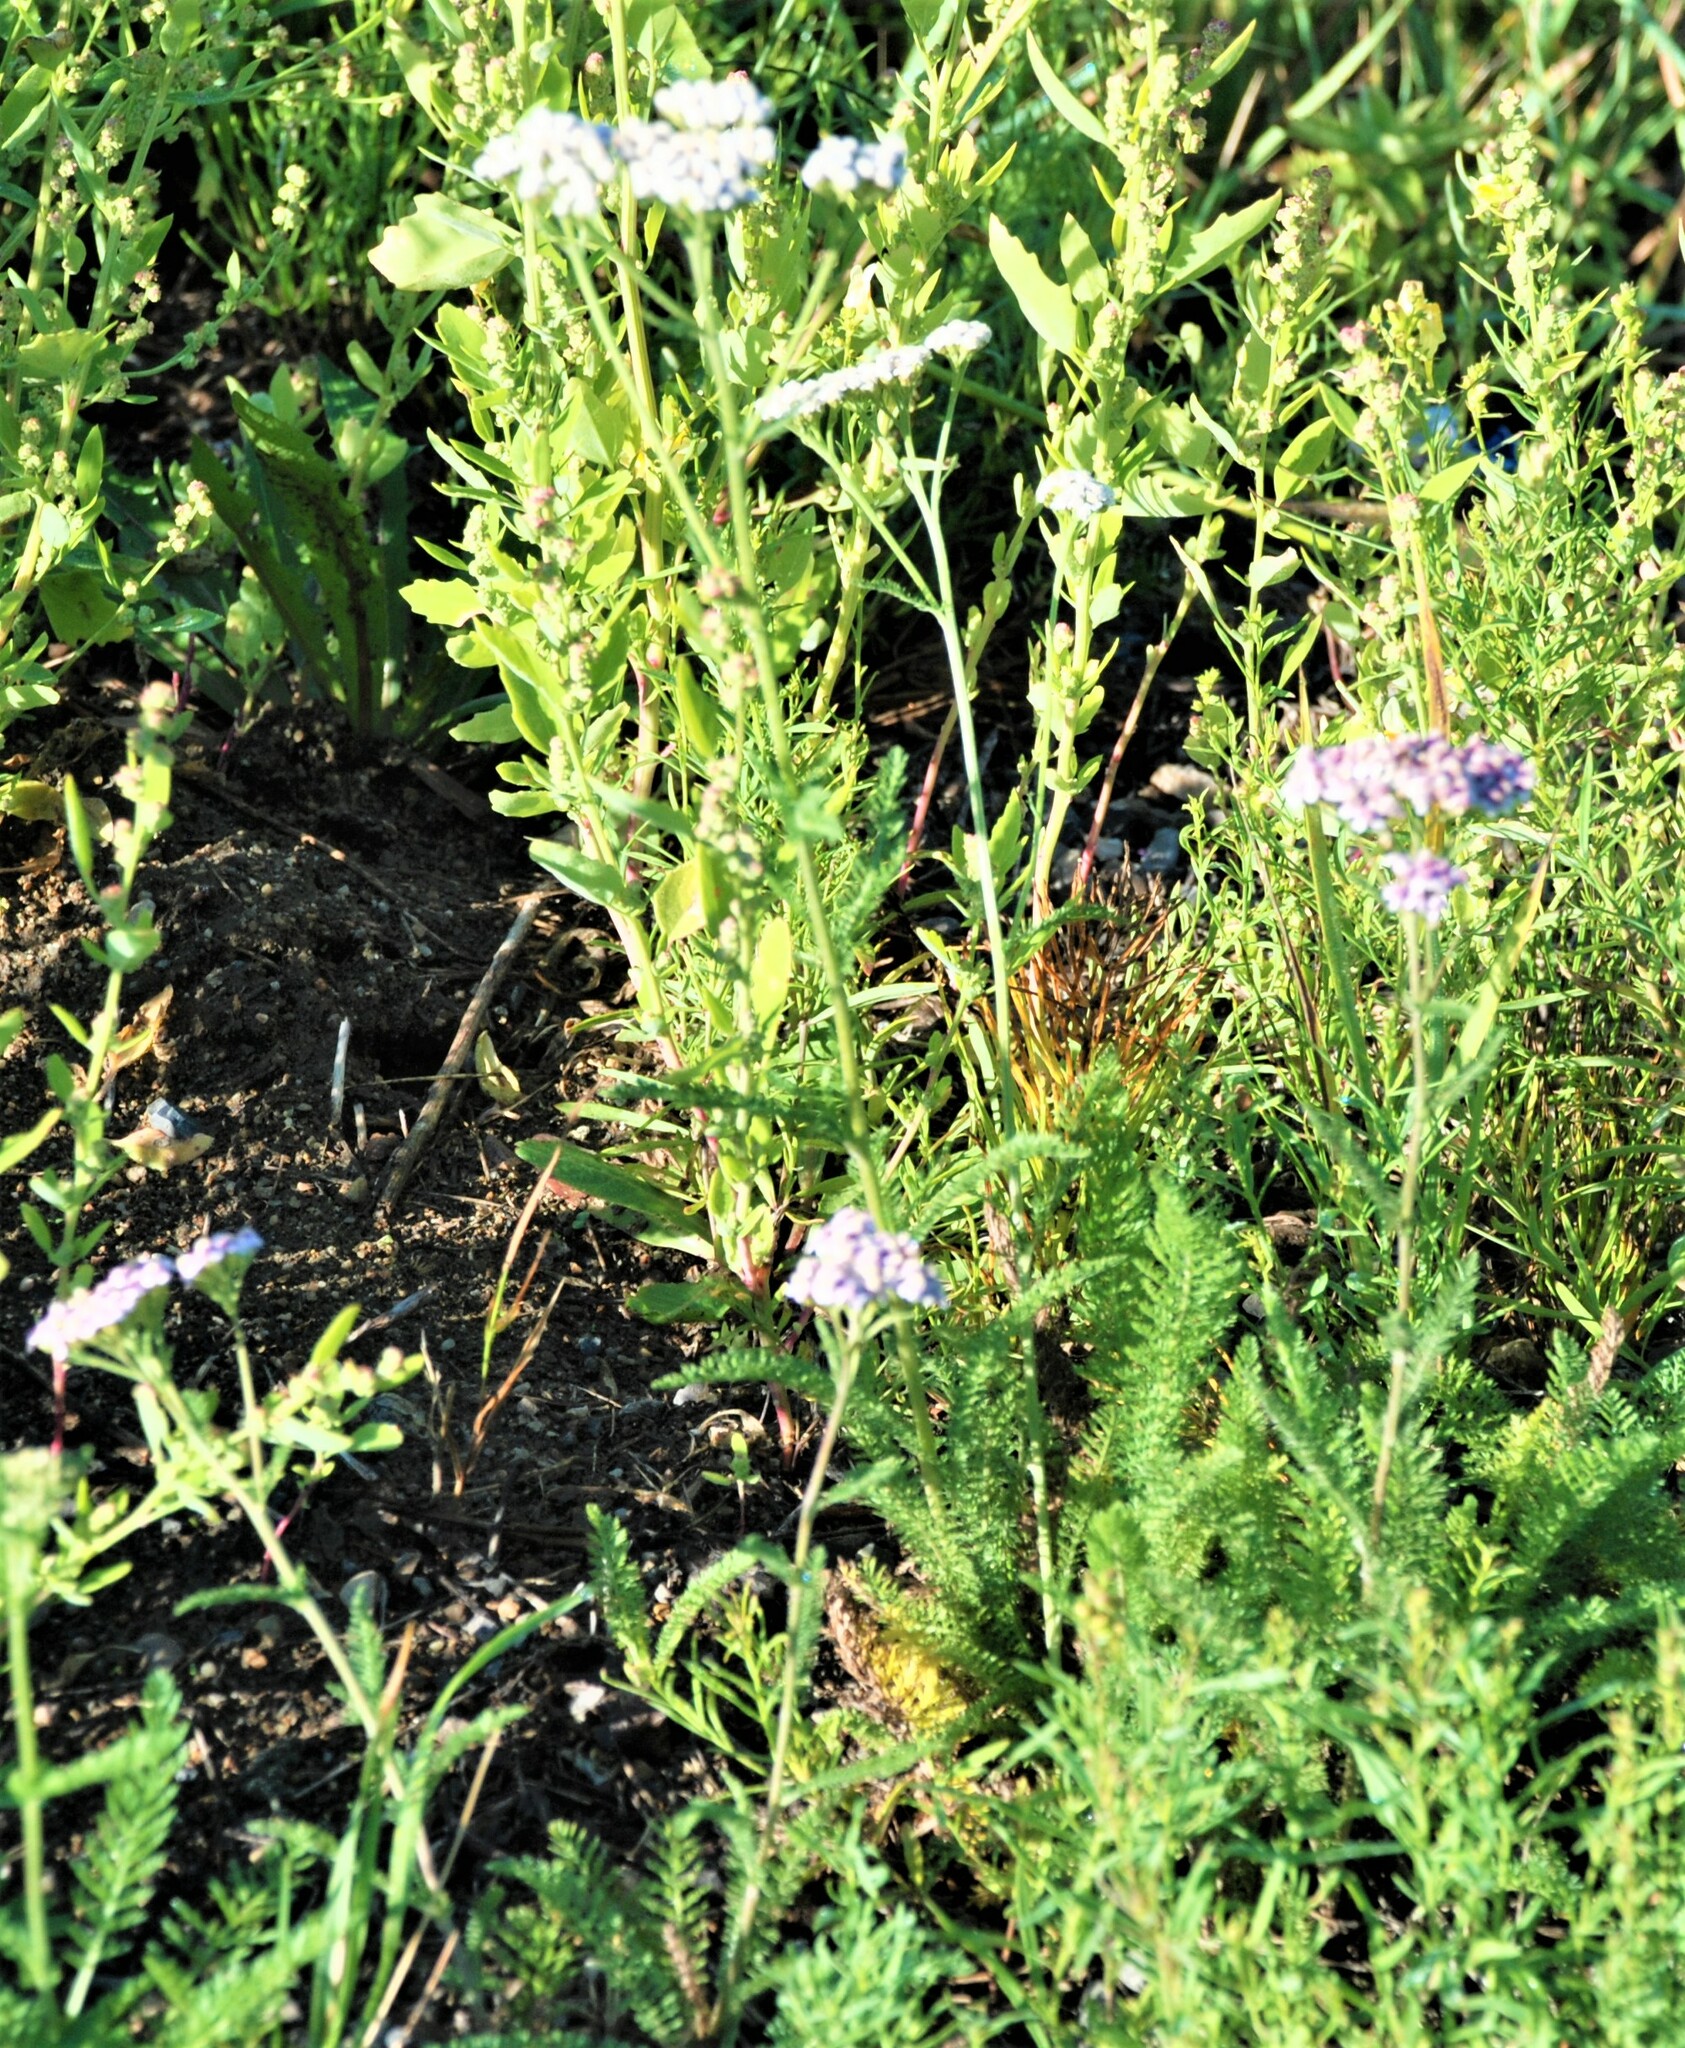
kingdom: Plantae
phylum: Tracheophyta
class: Magnoliopsida
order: Asterales
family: Asteraceae
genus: Achillea
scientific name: Achillea asiatica
